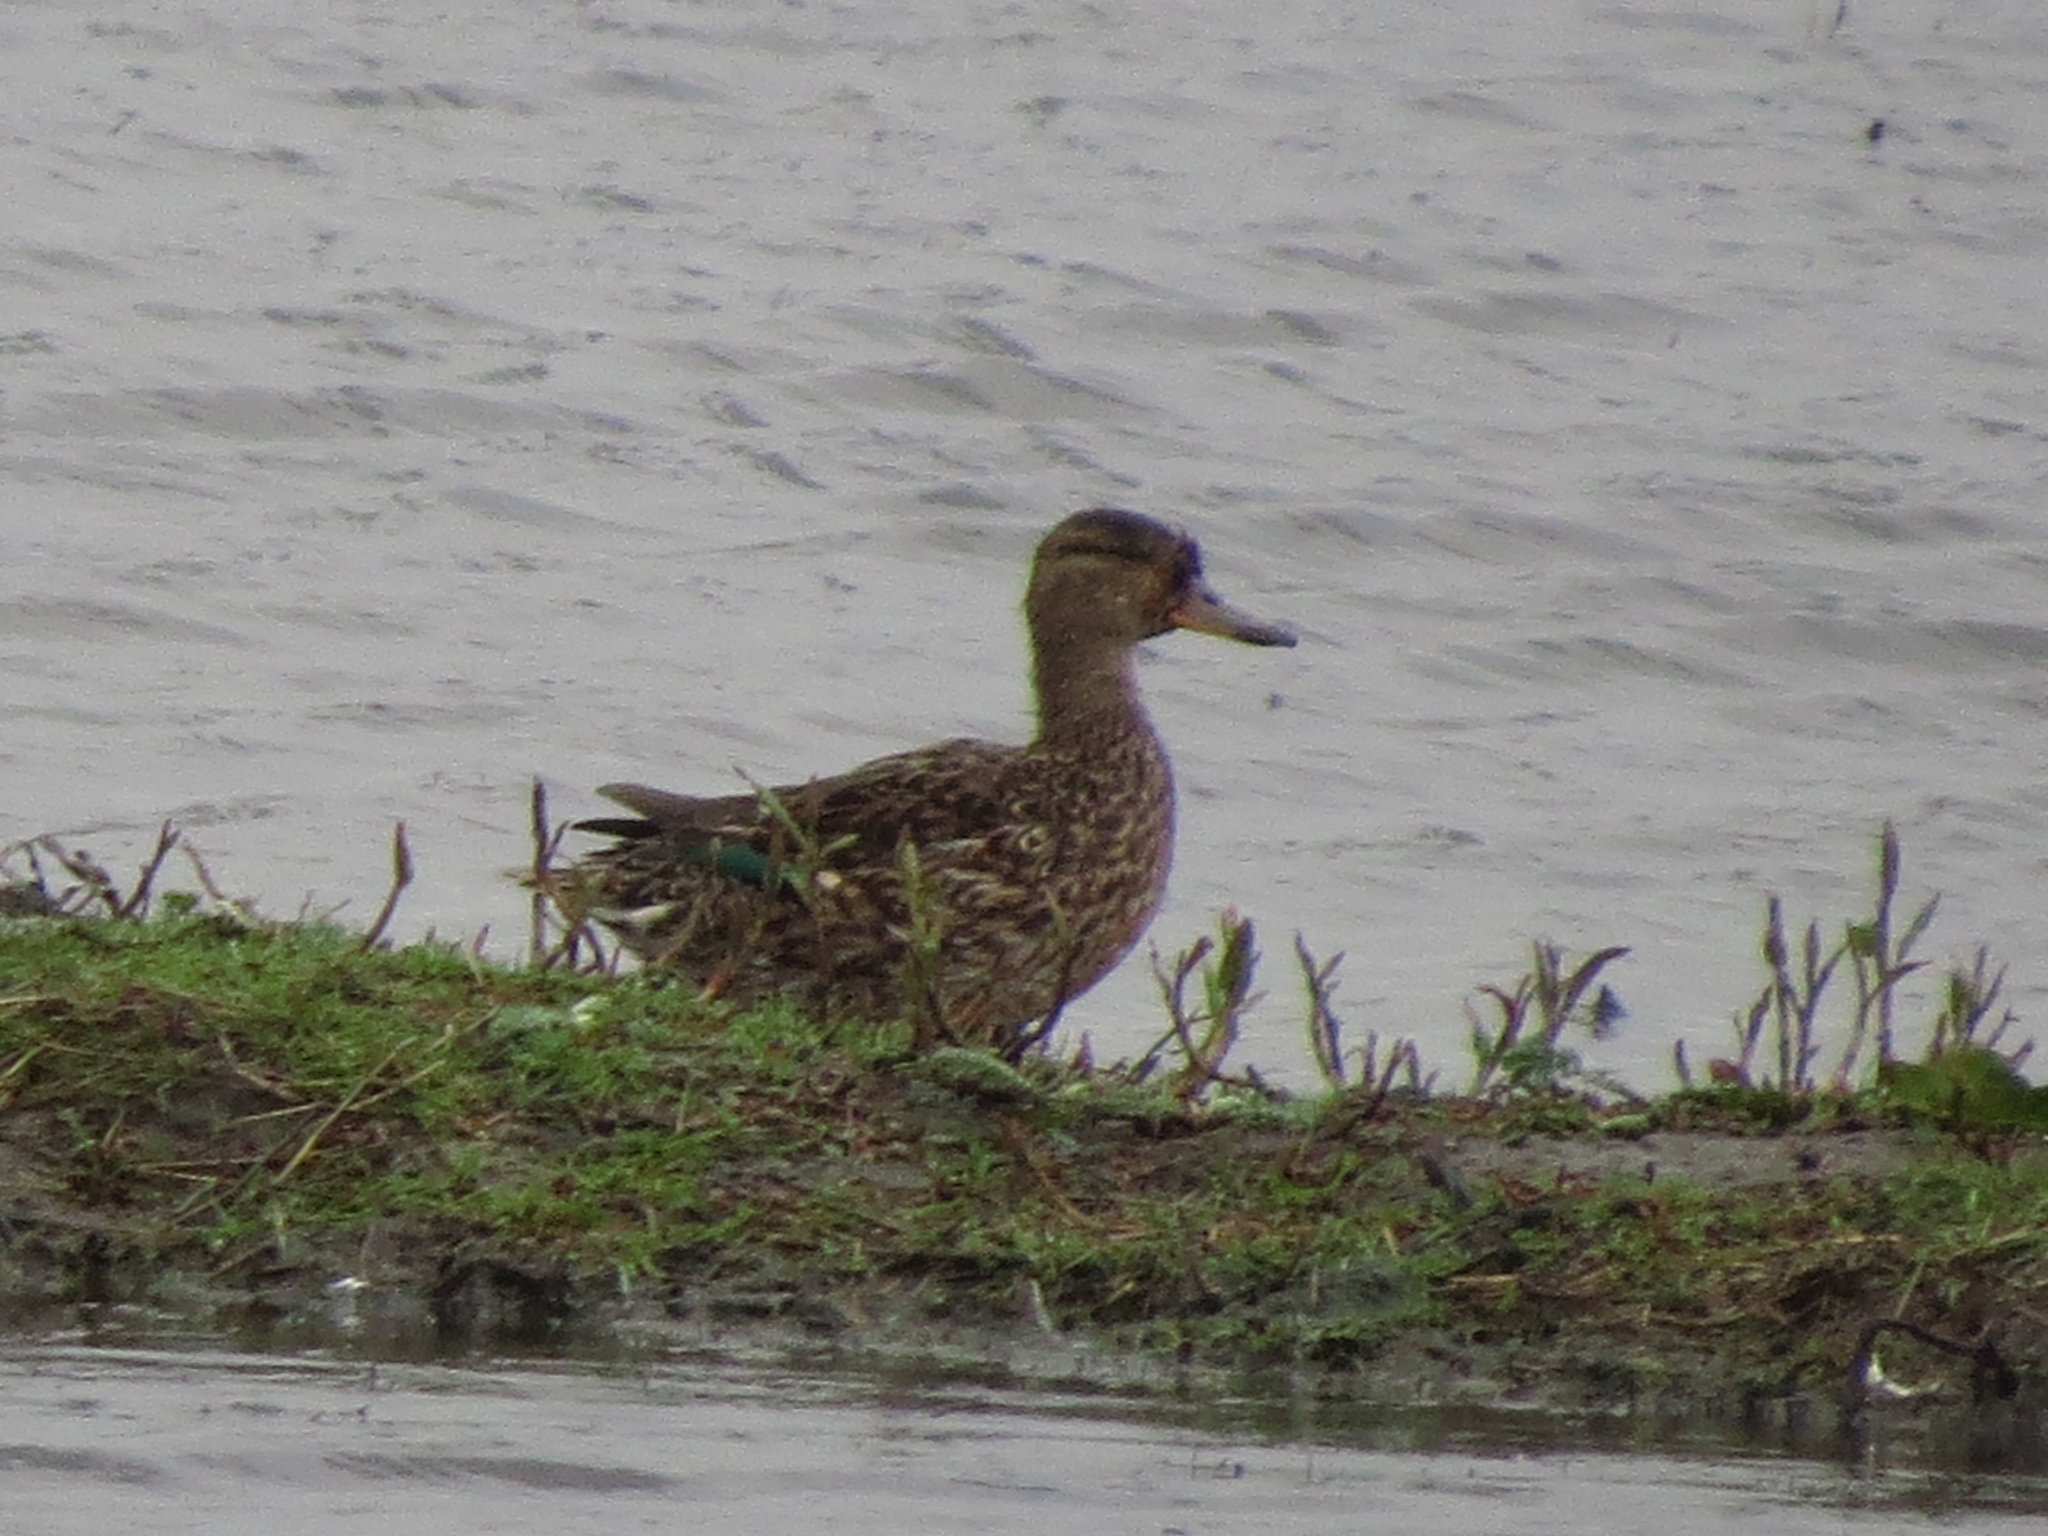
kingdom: Animalia
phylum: Chordata
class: Aves
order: Anseriformes
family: Anatidae
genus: Anas
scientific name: Anas crecca
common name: Eurasian teal
